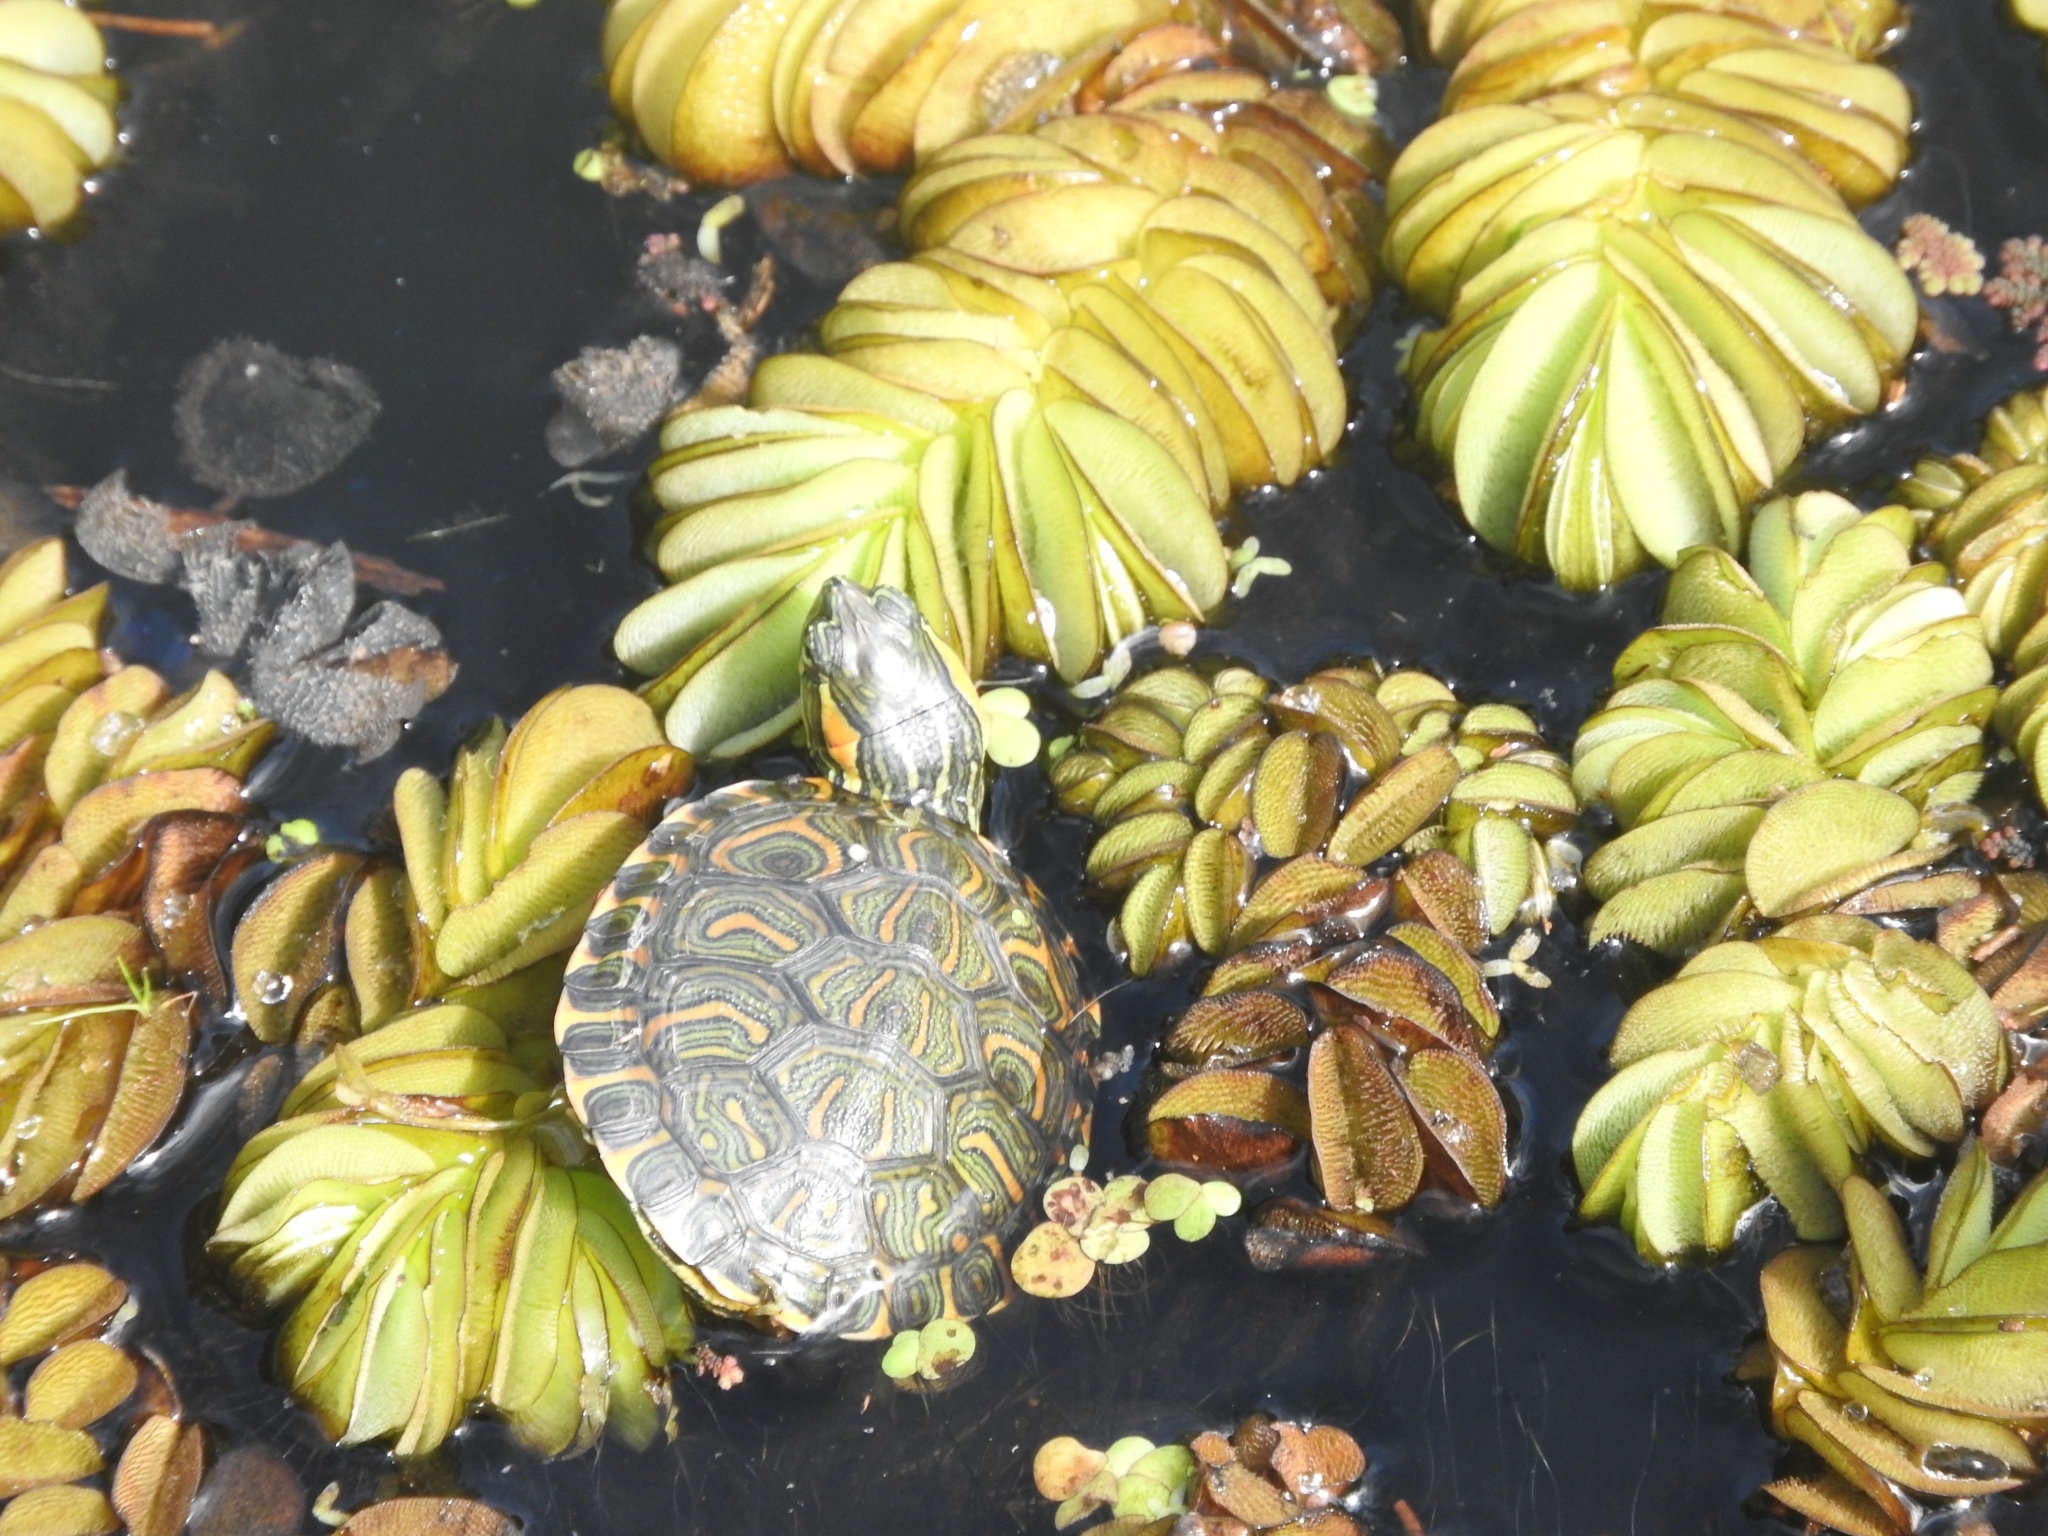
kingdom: Animalia
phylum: Chordata
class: Testudines
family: Emydidae
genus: Trachemys
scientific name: Trachemys dorbigni
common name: Black-bellied slider
